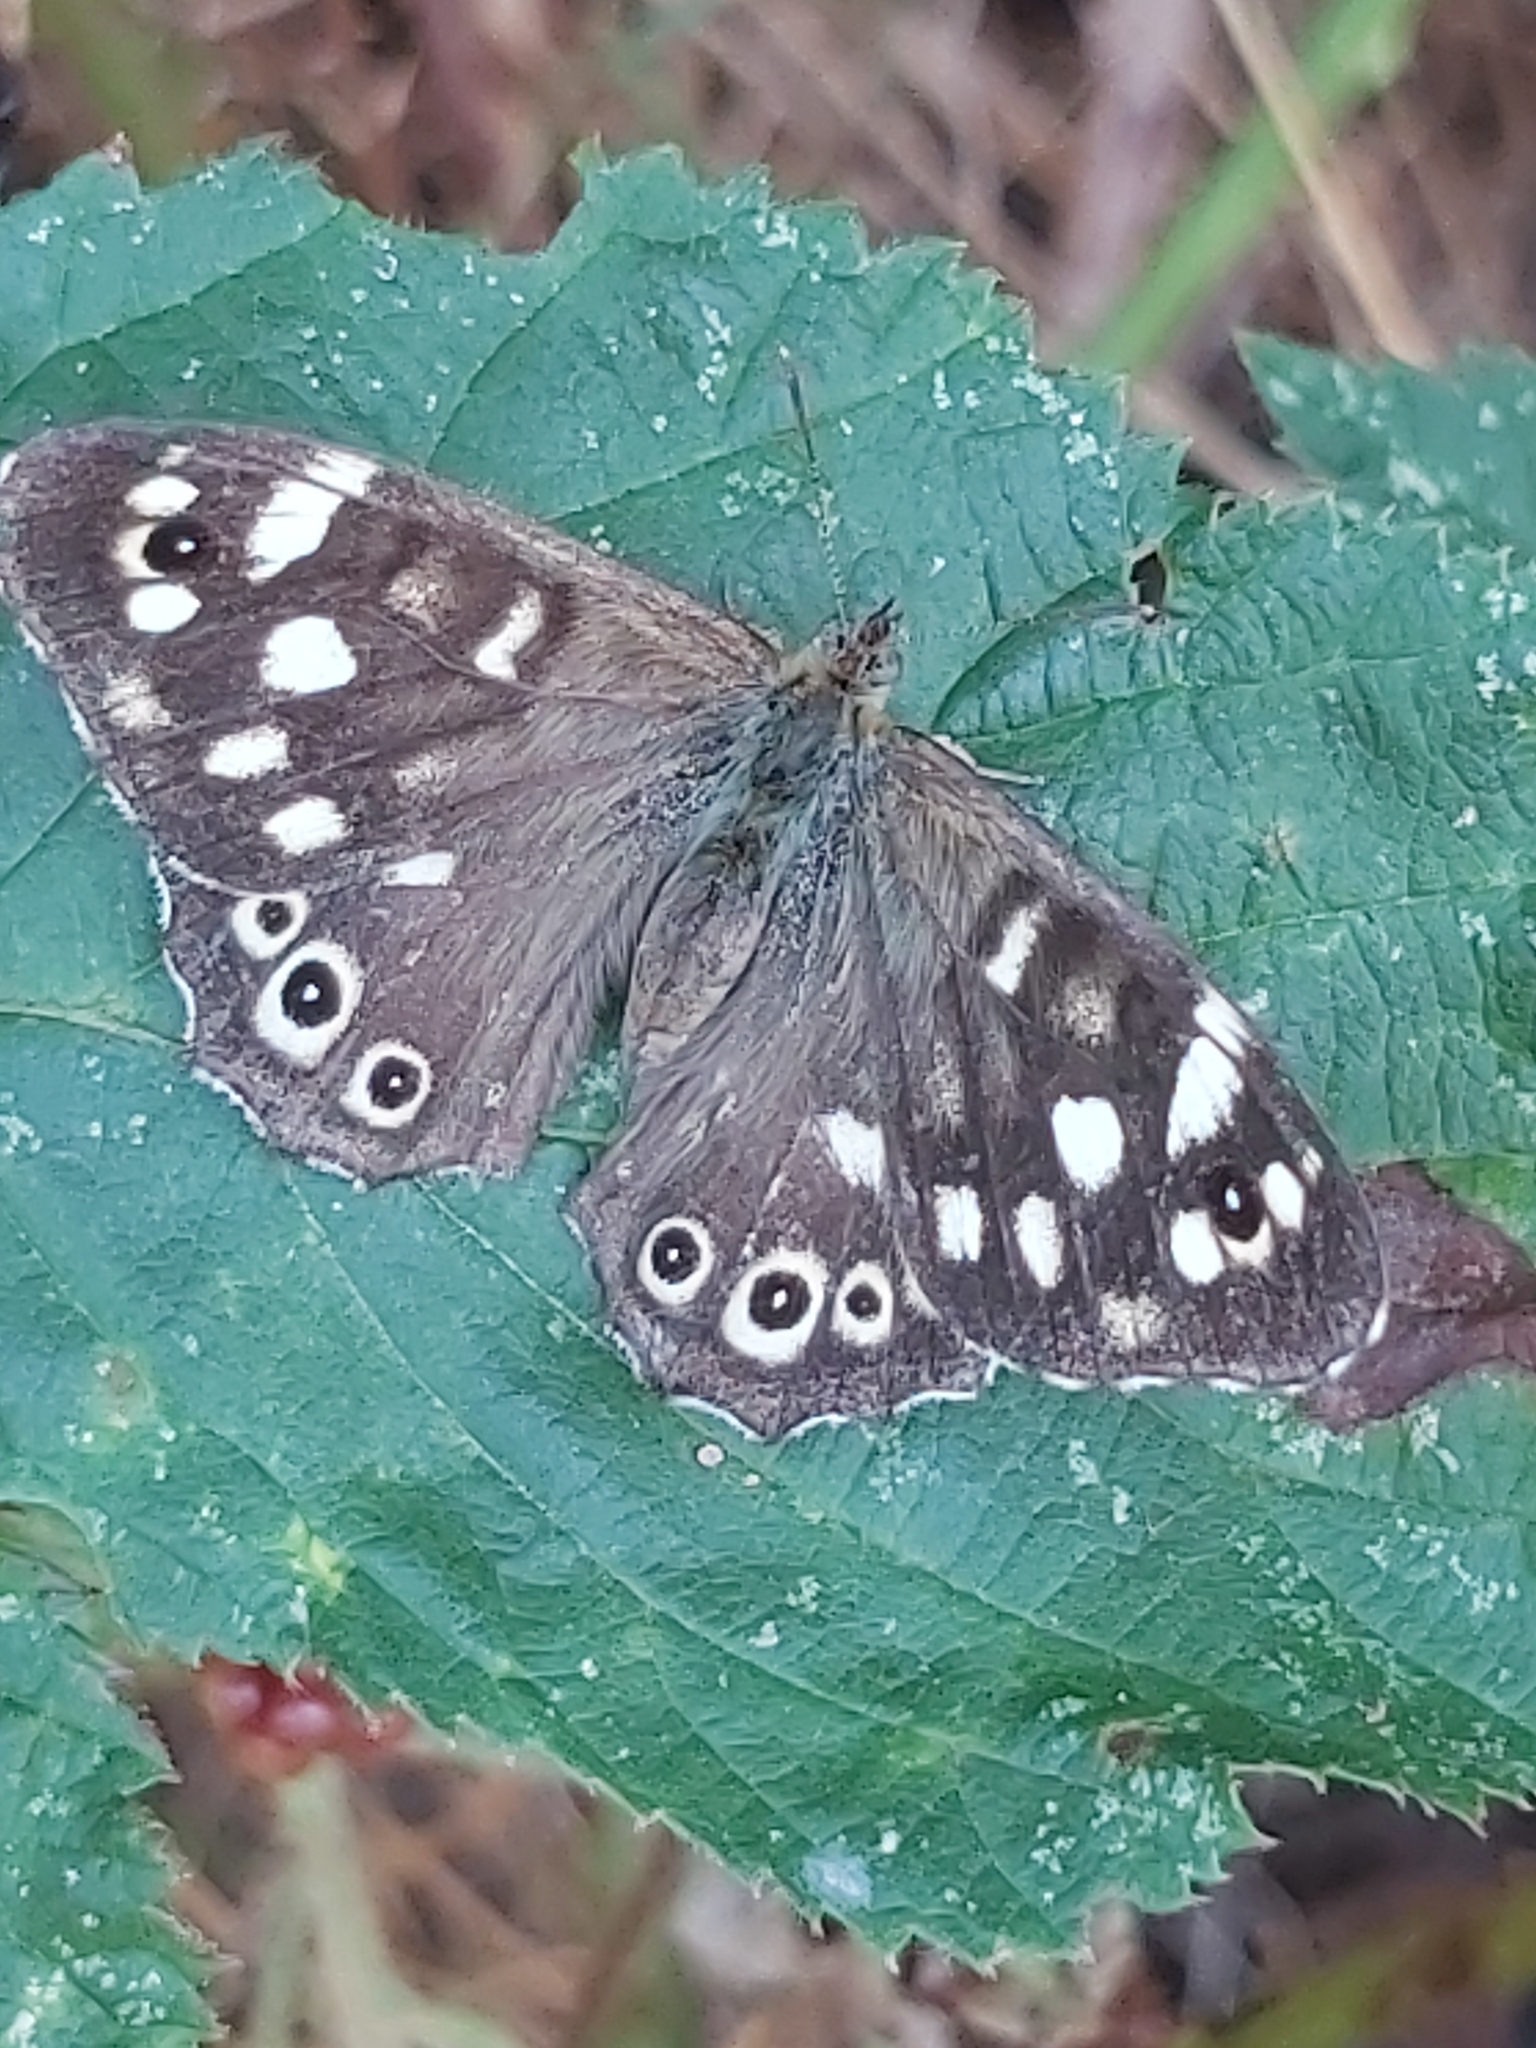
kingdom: Animalia
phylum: Arthropoda
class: Insecta
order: Lepidoptera
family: Nymphalidae
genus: Pararge
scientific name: Pararge aegeria
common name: Speckled wood
